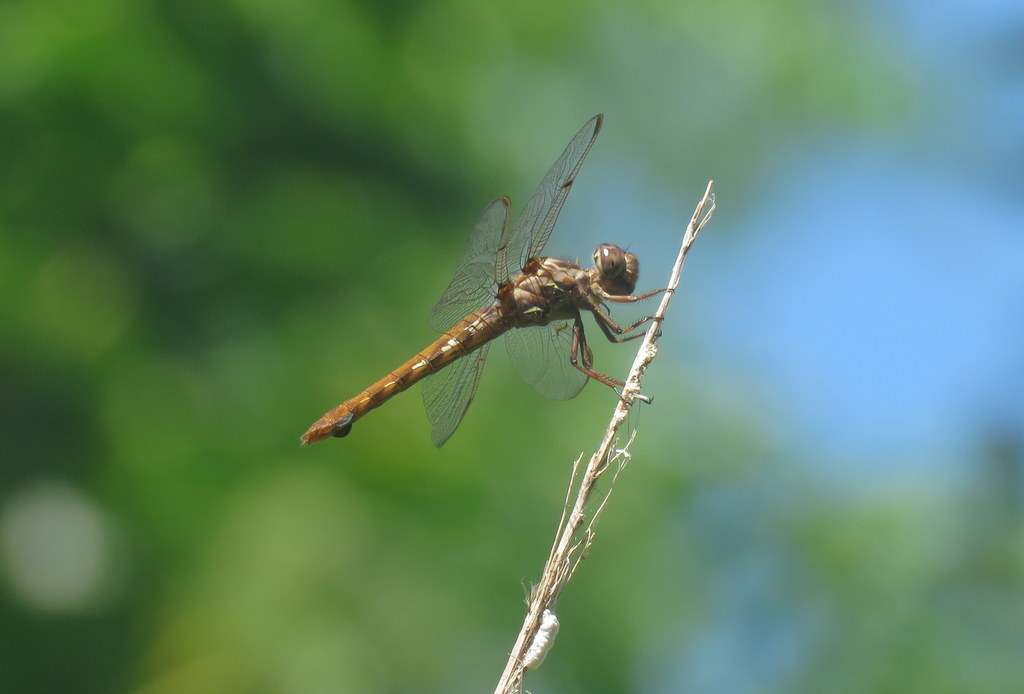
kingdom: Animalia
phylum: Arthropoda
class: Insecta
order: Odonata
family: Libellulidae
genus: Orthemis
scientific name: Orthemis nodiplaga
